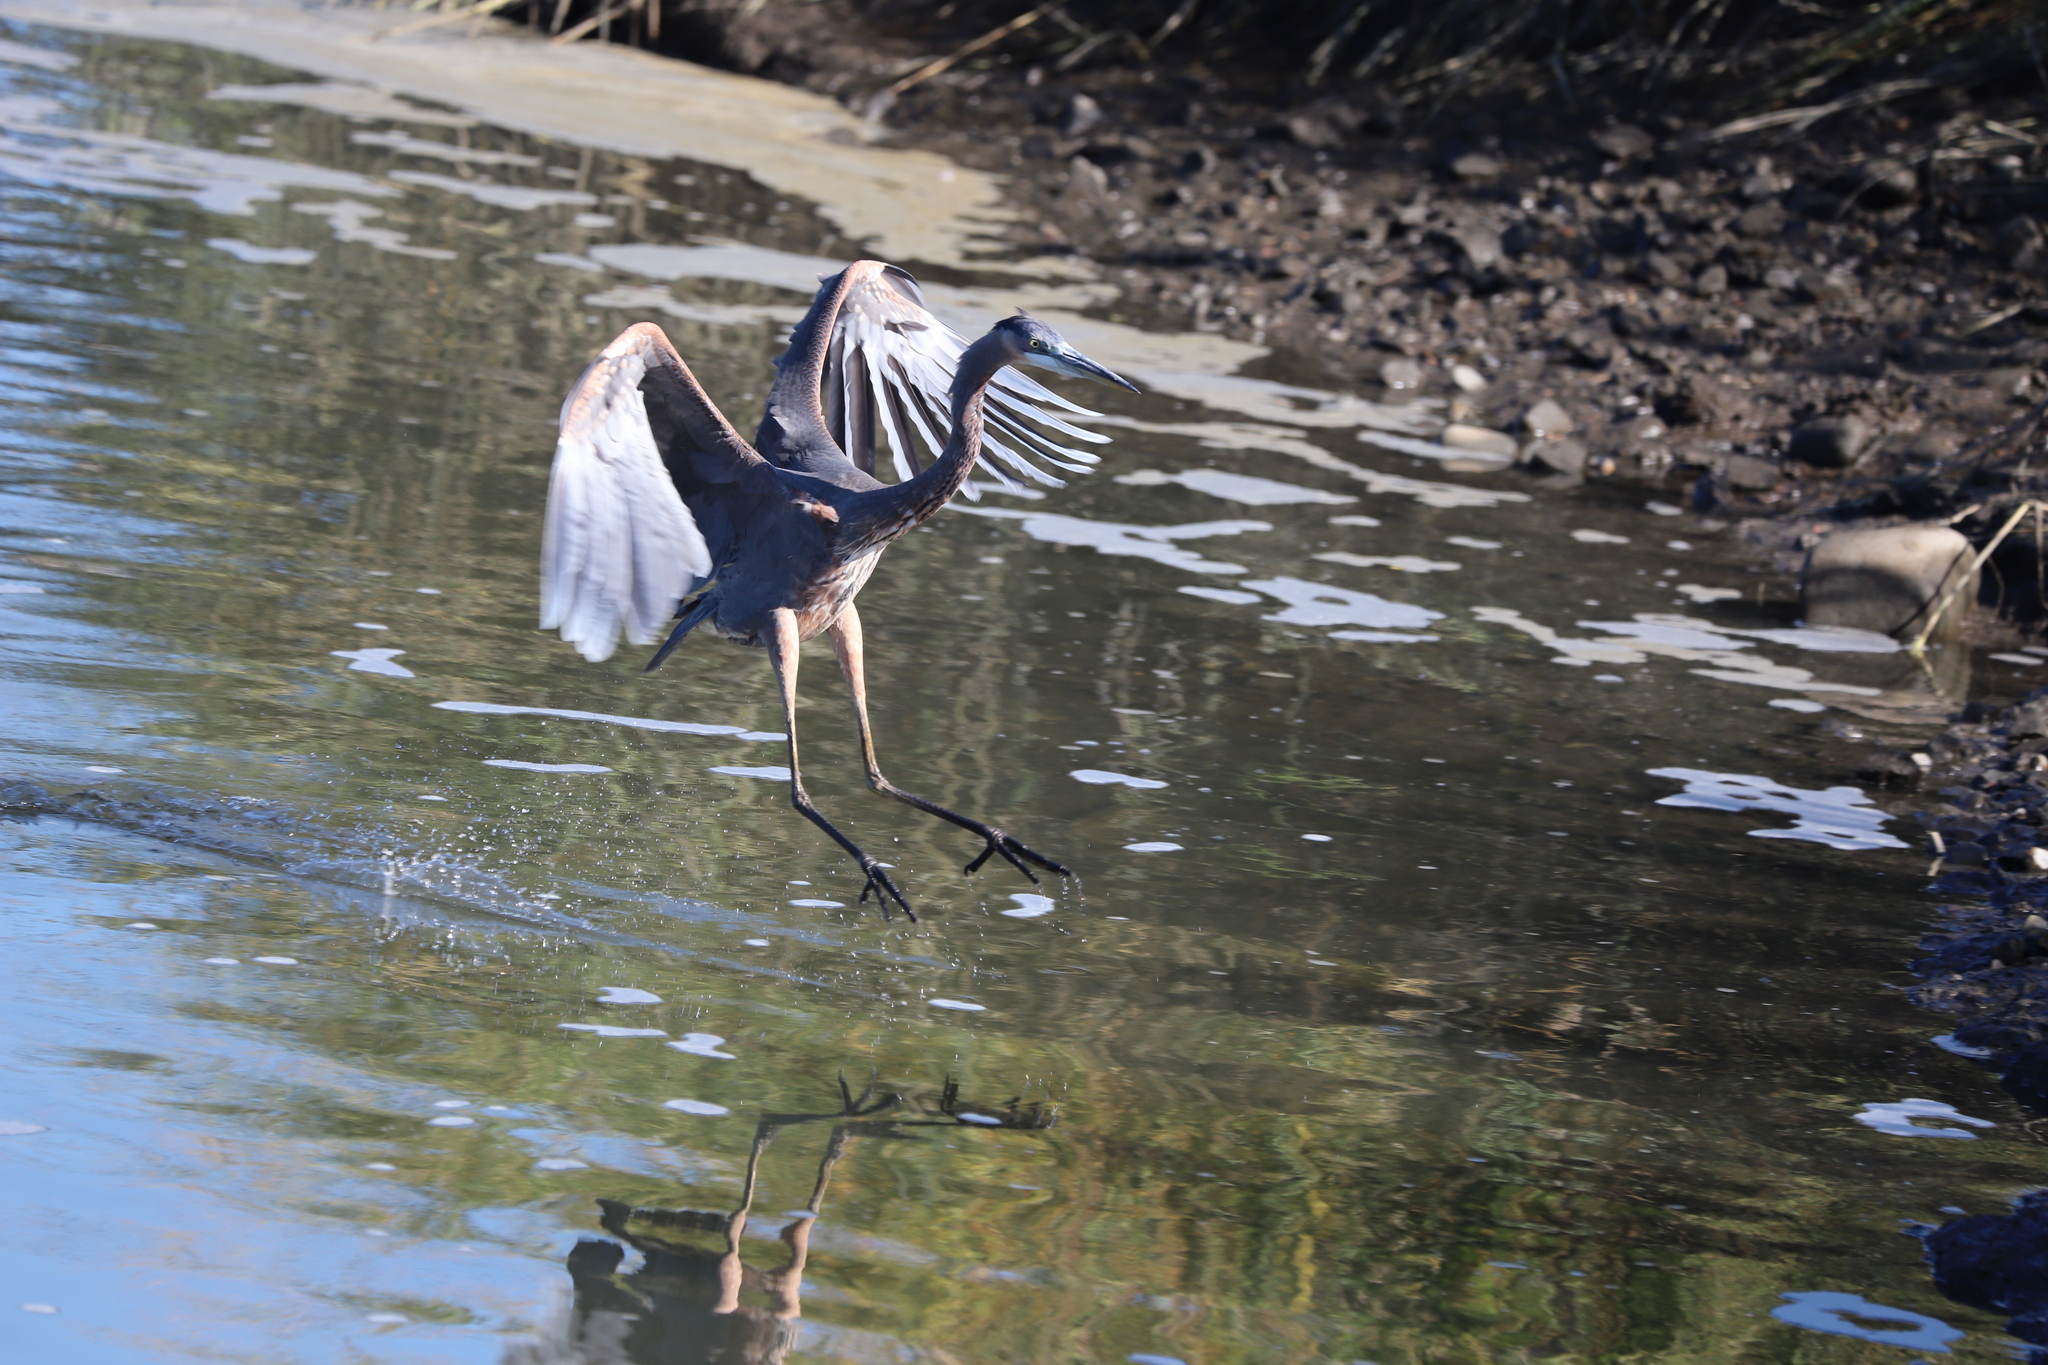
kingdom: Animalia
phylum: Chordata
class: Aves
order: Pelecaniformes
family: Ardeidae
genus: Ardea
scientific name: Ardea herodias
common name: Great blue heron
